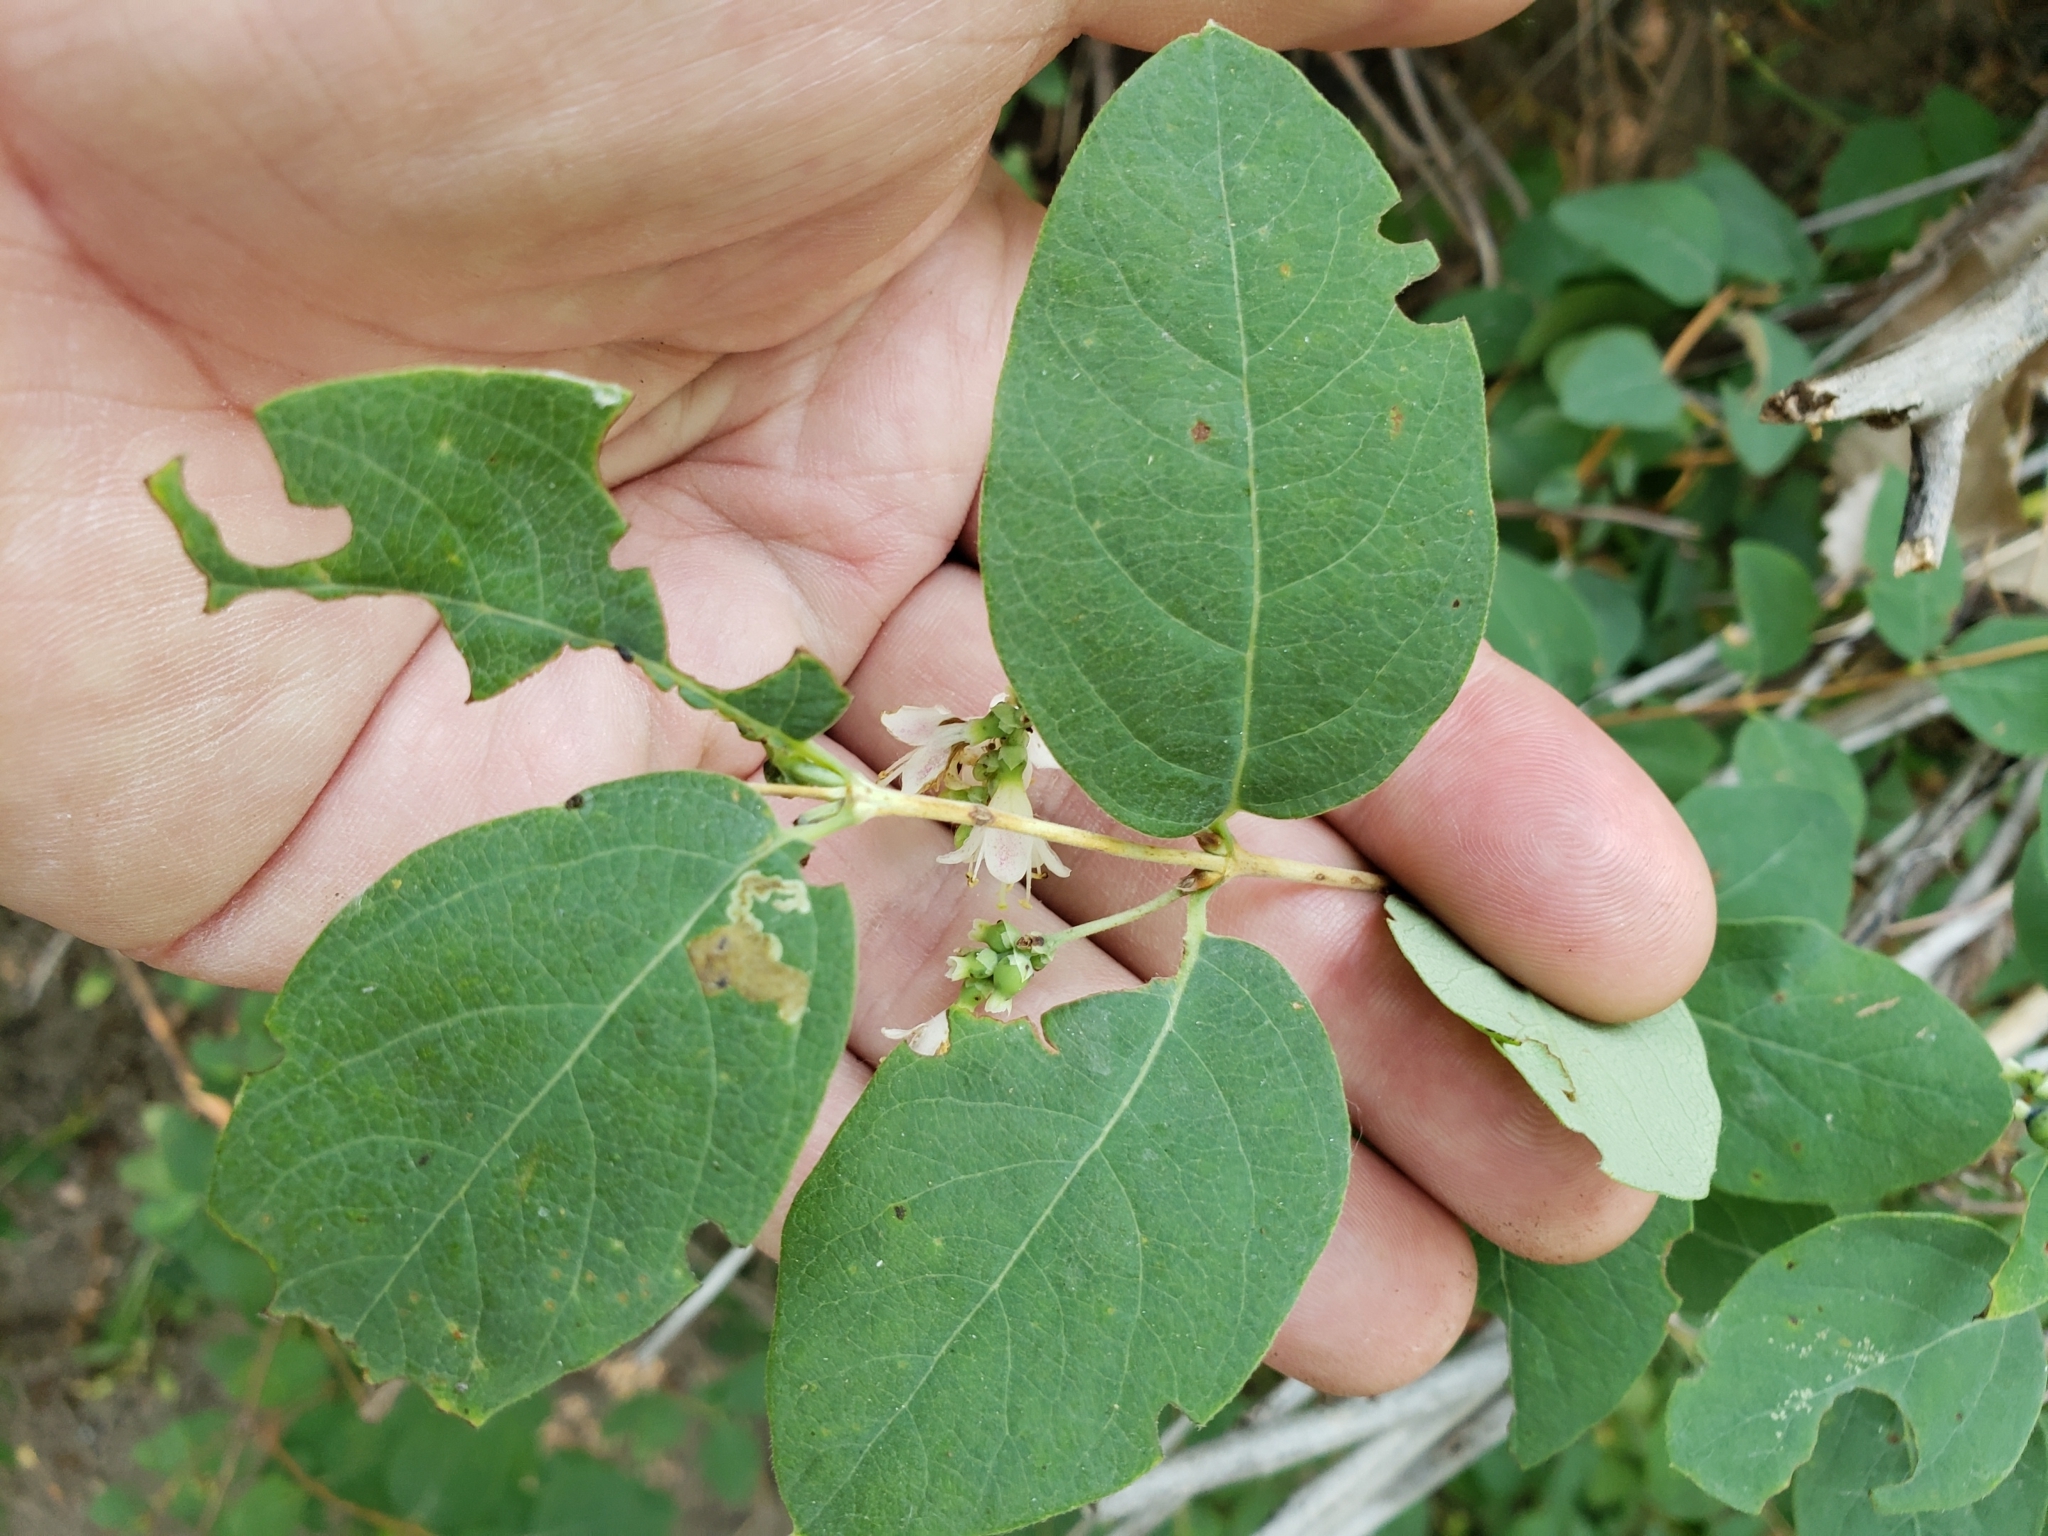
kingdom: Plantae
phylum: Tracheophyta
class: Magnoliopsida
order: Dipsacales
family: Caprifoliaceae
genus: Symphoricarpos
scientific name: Symphoricarpos occidentalis
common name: Wolfberry
